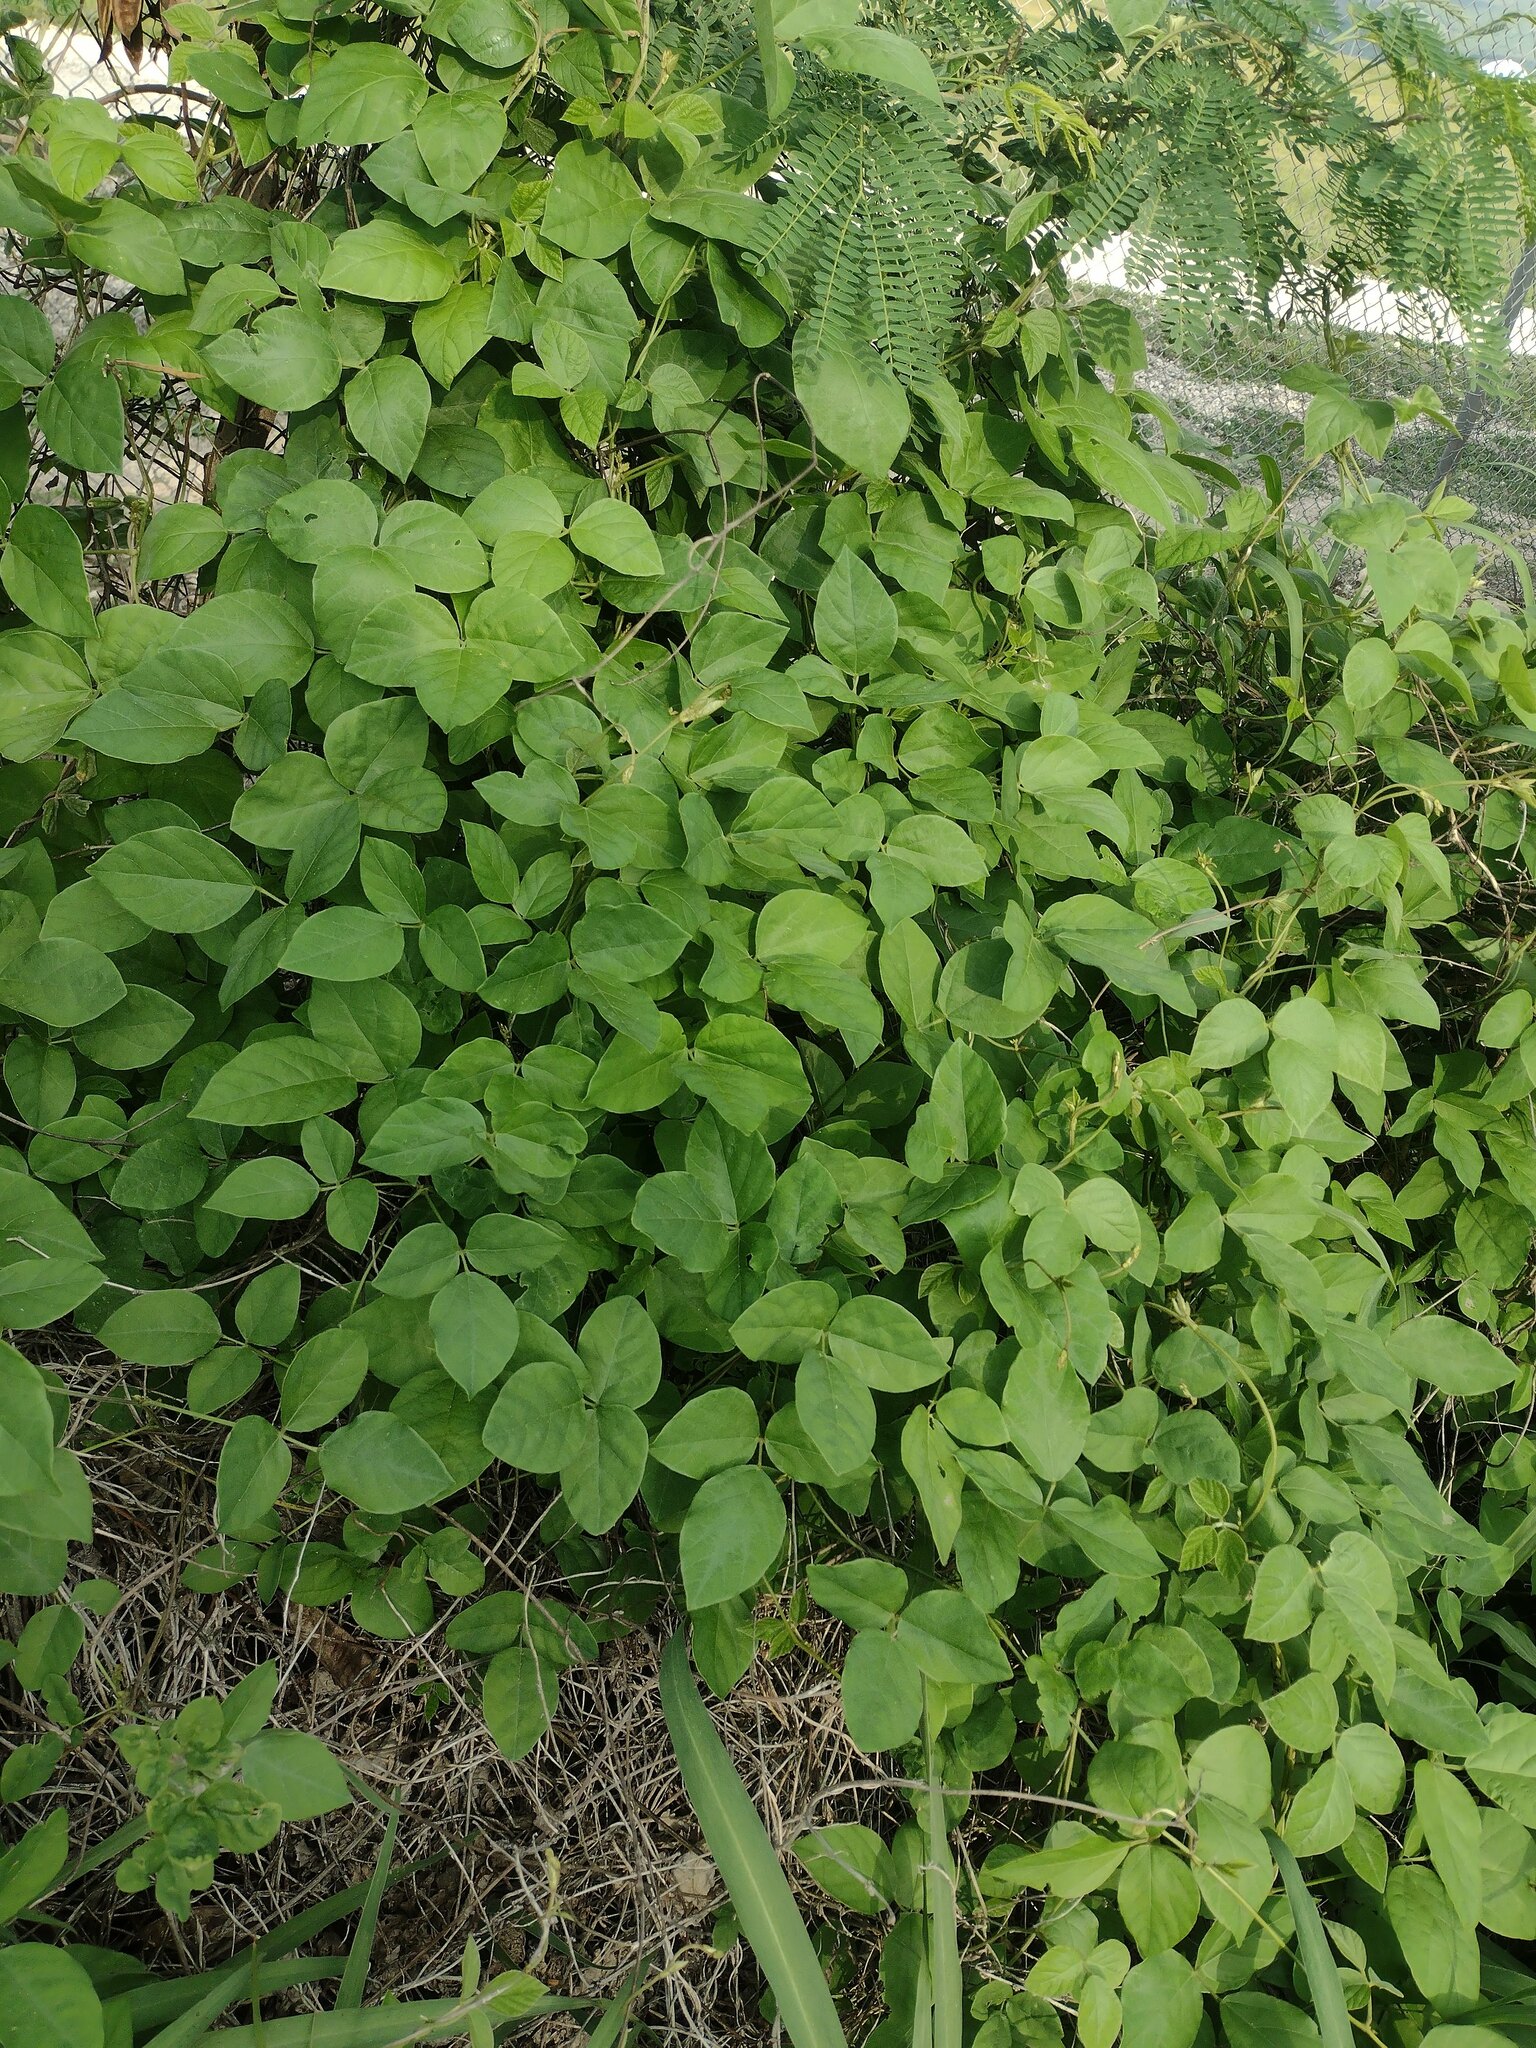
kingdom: Plantae
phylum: Tracheophyta
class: Magnoliopsida
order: Fabales
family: Fabaceae
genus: Neonotonia
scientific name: Neonotonia wightii
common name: Perennial soybean
